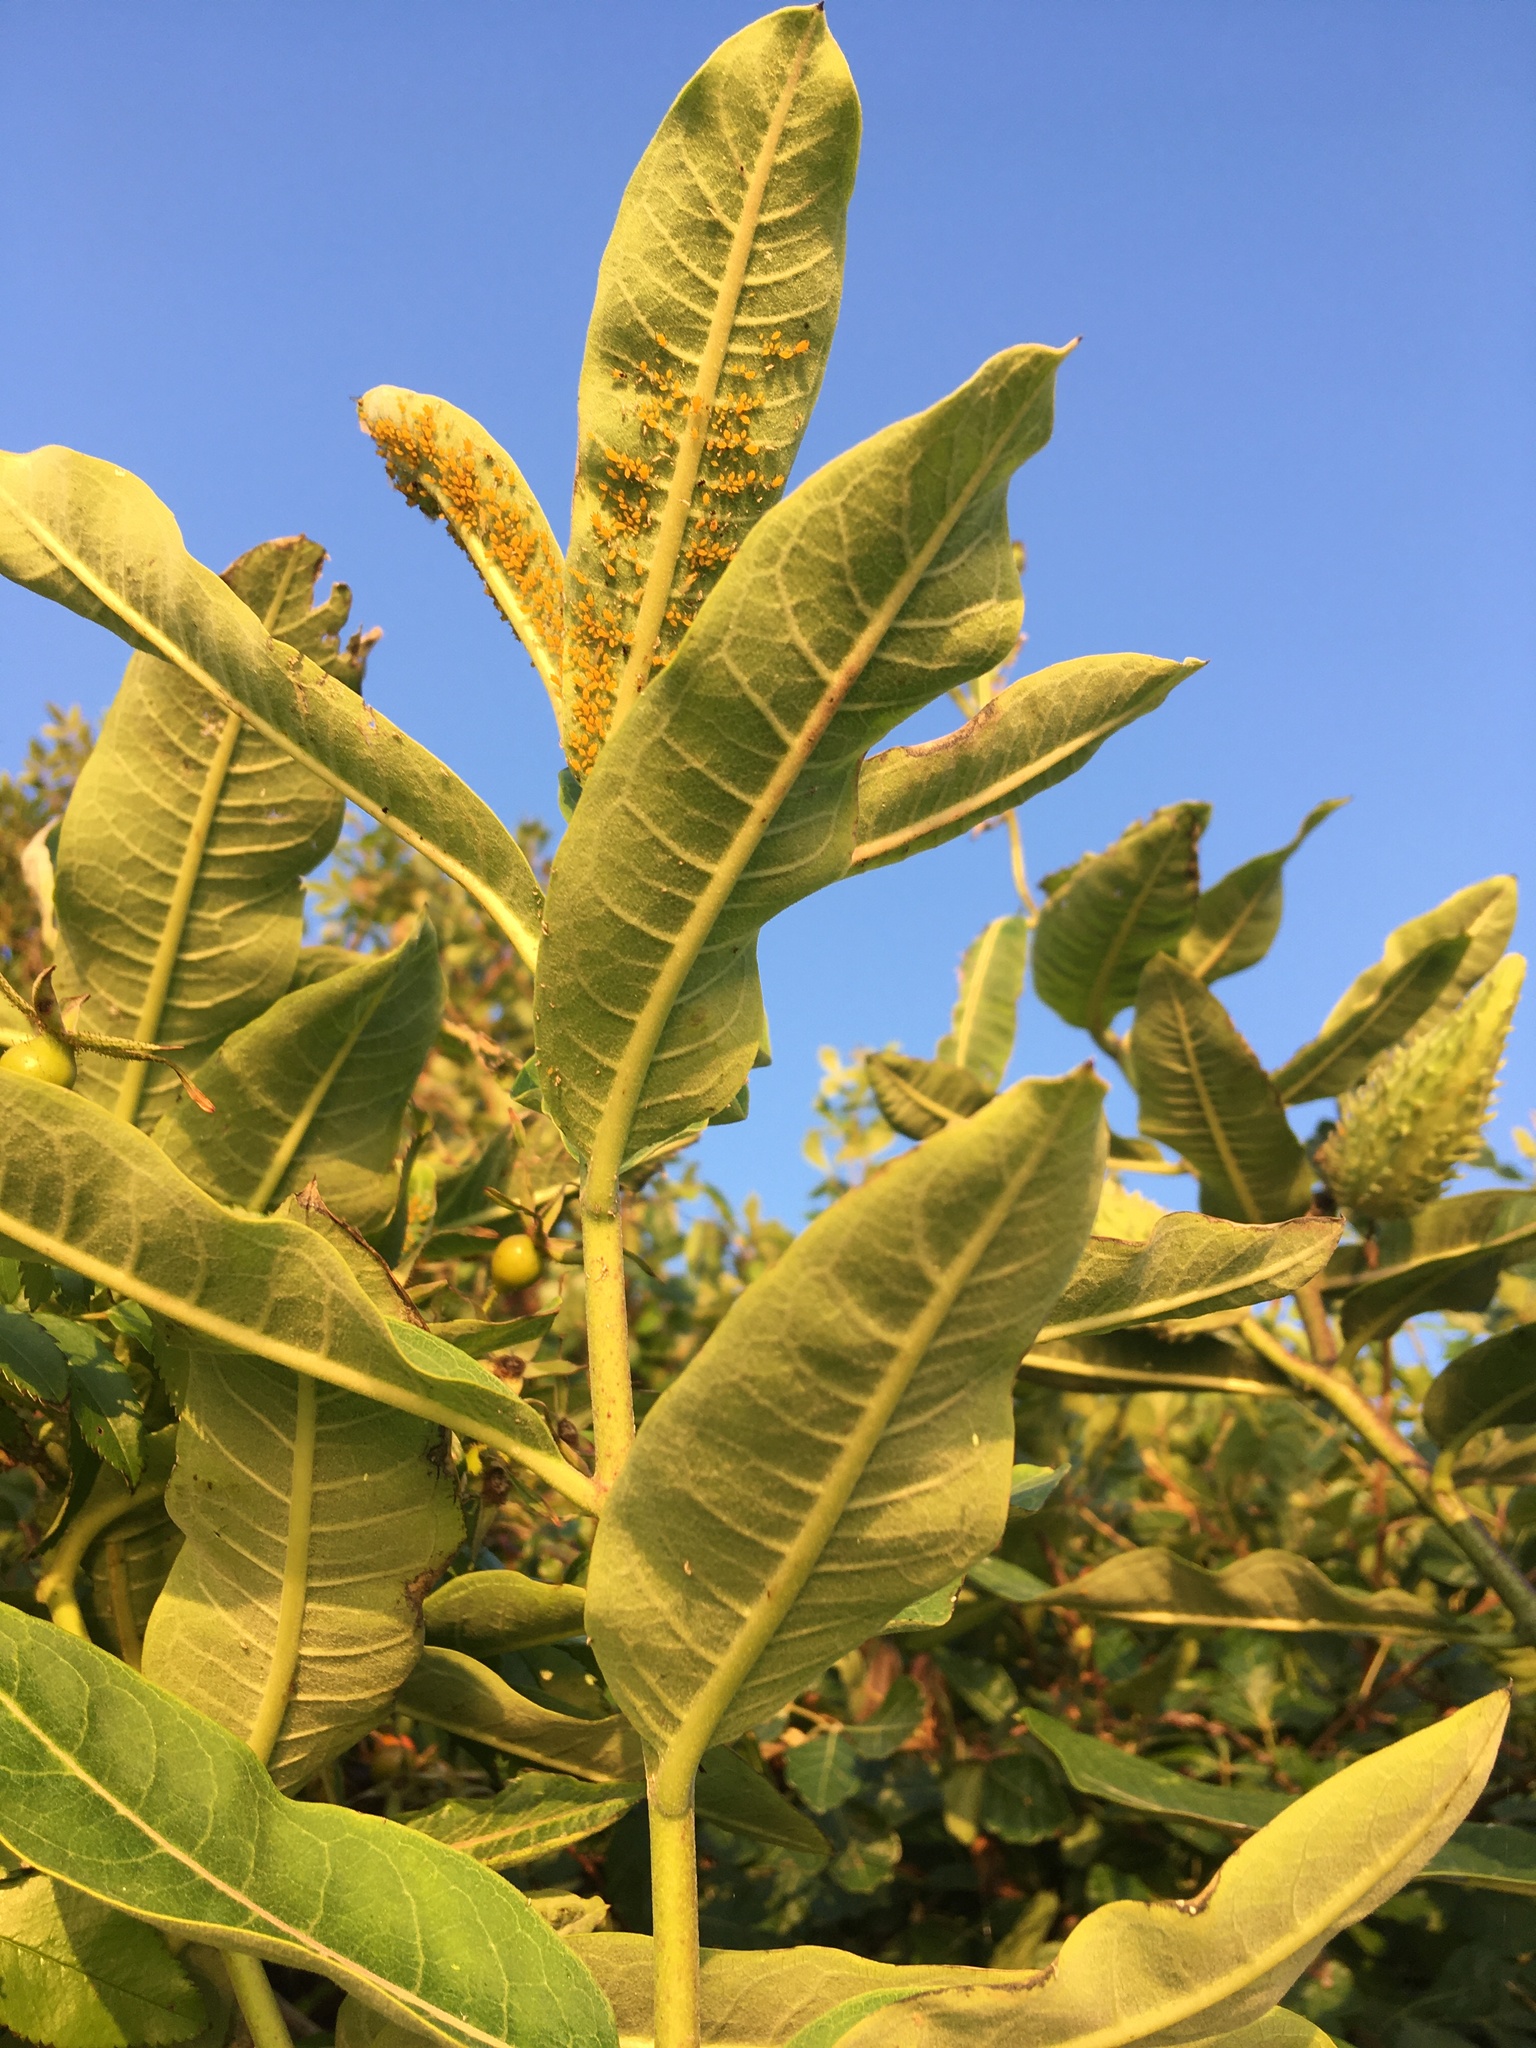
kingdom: Plantae
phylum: Tracheophyta
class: Magnoliopsida
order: Gentianales
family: Apocynaceae
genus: Asclepias
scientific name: Asclepias syriaca
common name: Common milkweed
